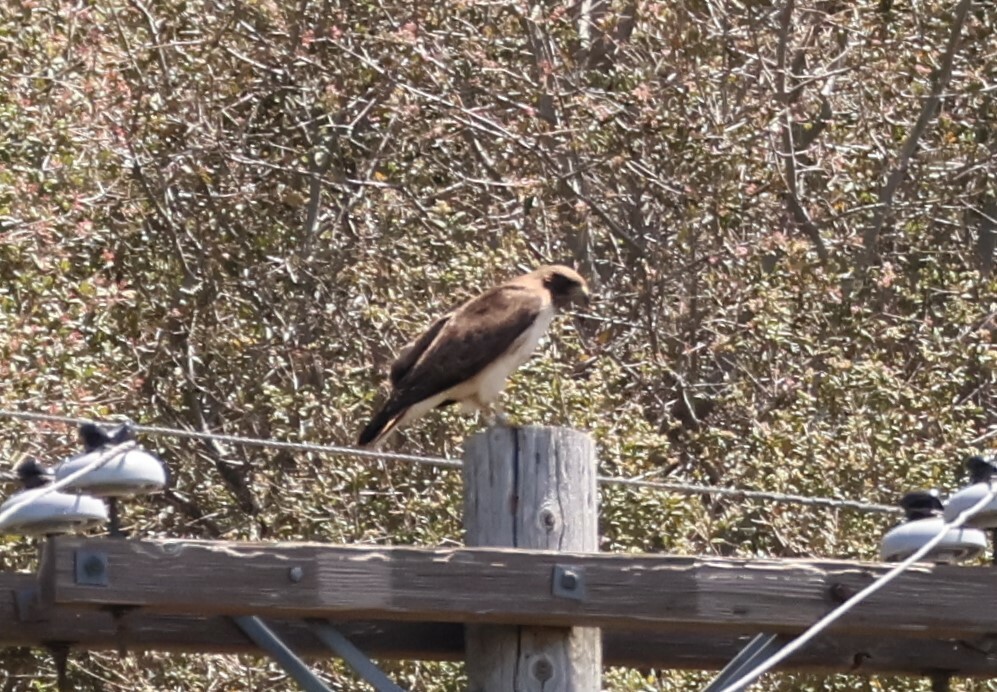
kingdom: Animalia
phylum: Chordata
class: Aves
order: Accipitriformes
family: Accipitridae
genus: Buteo
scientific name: Buteo jamaicensis
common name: Red-tailed hawk
